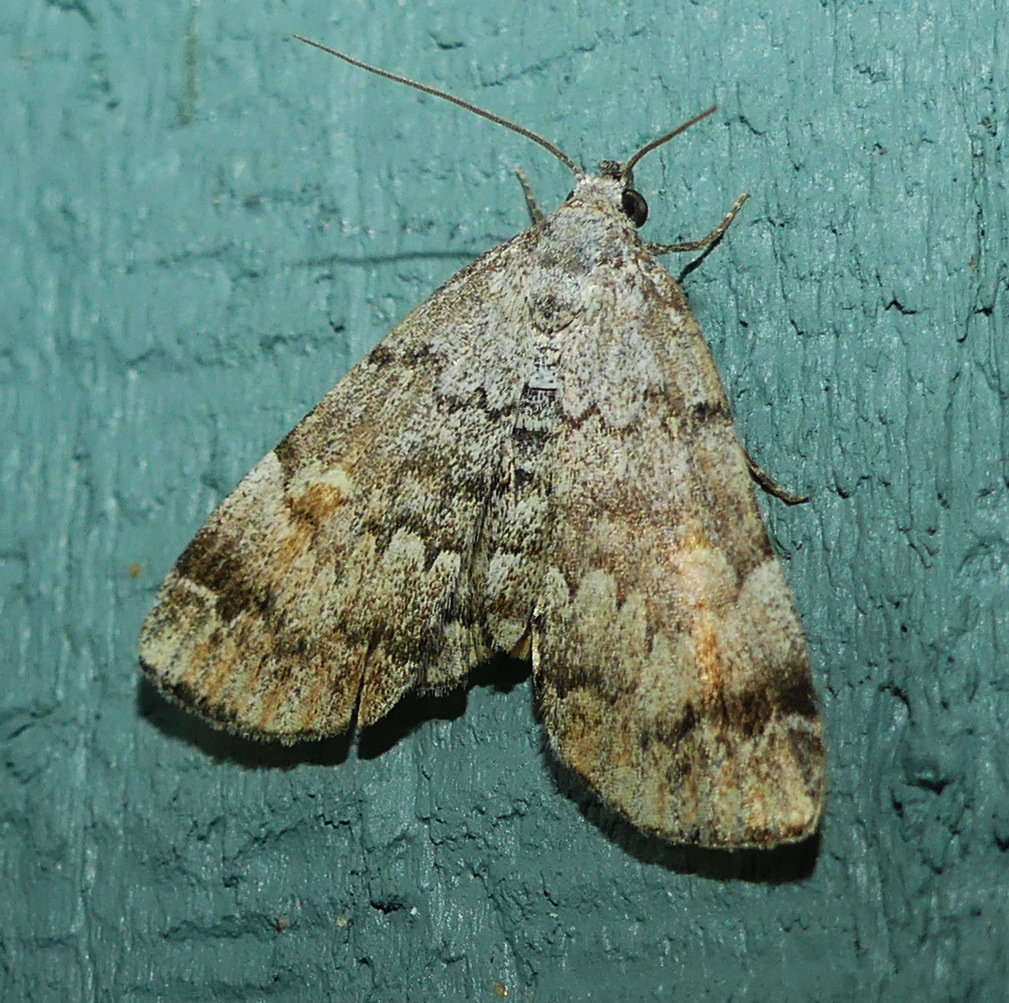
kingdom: Animalia
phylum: Arthropoda
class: Insecta
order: Lepidoptera
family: Erebidae
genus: Idia
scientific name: Idia americalis
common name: American idia moth
